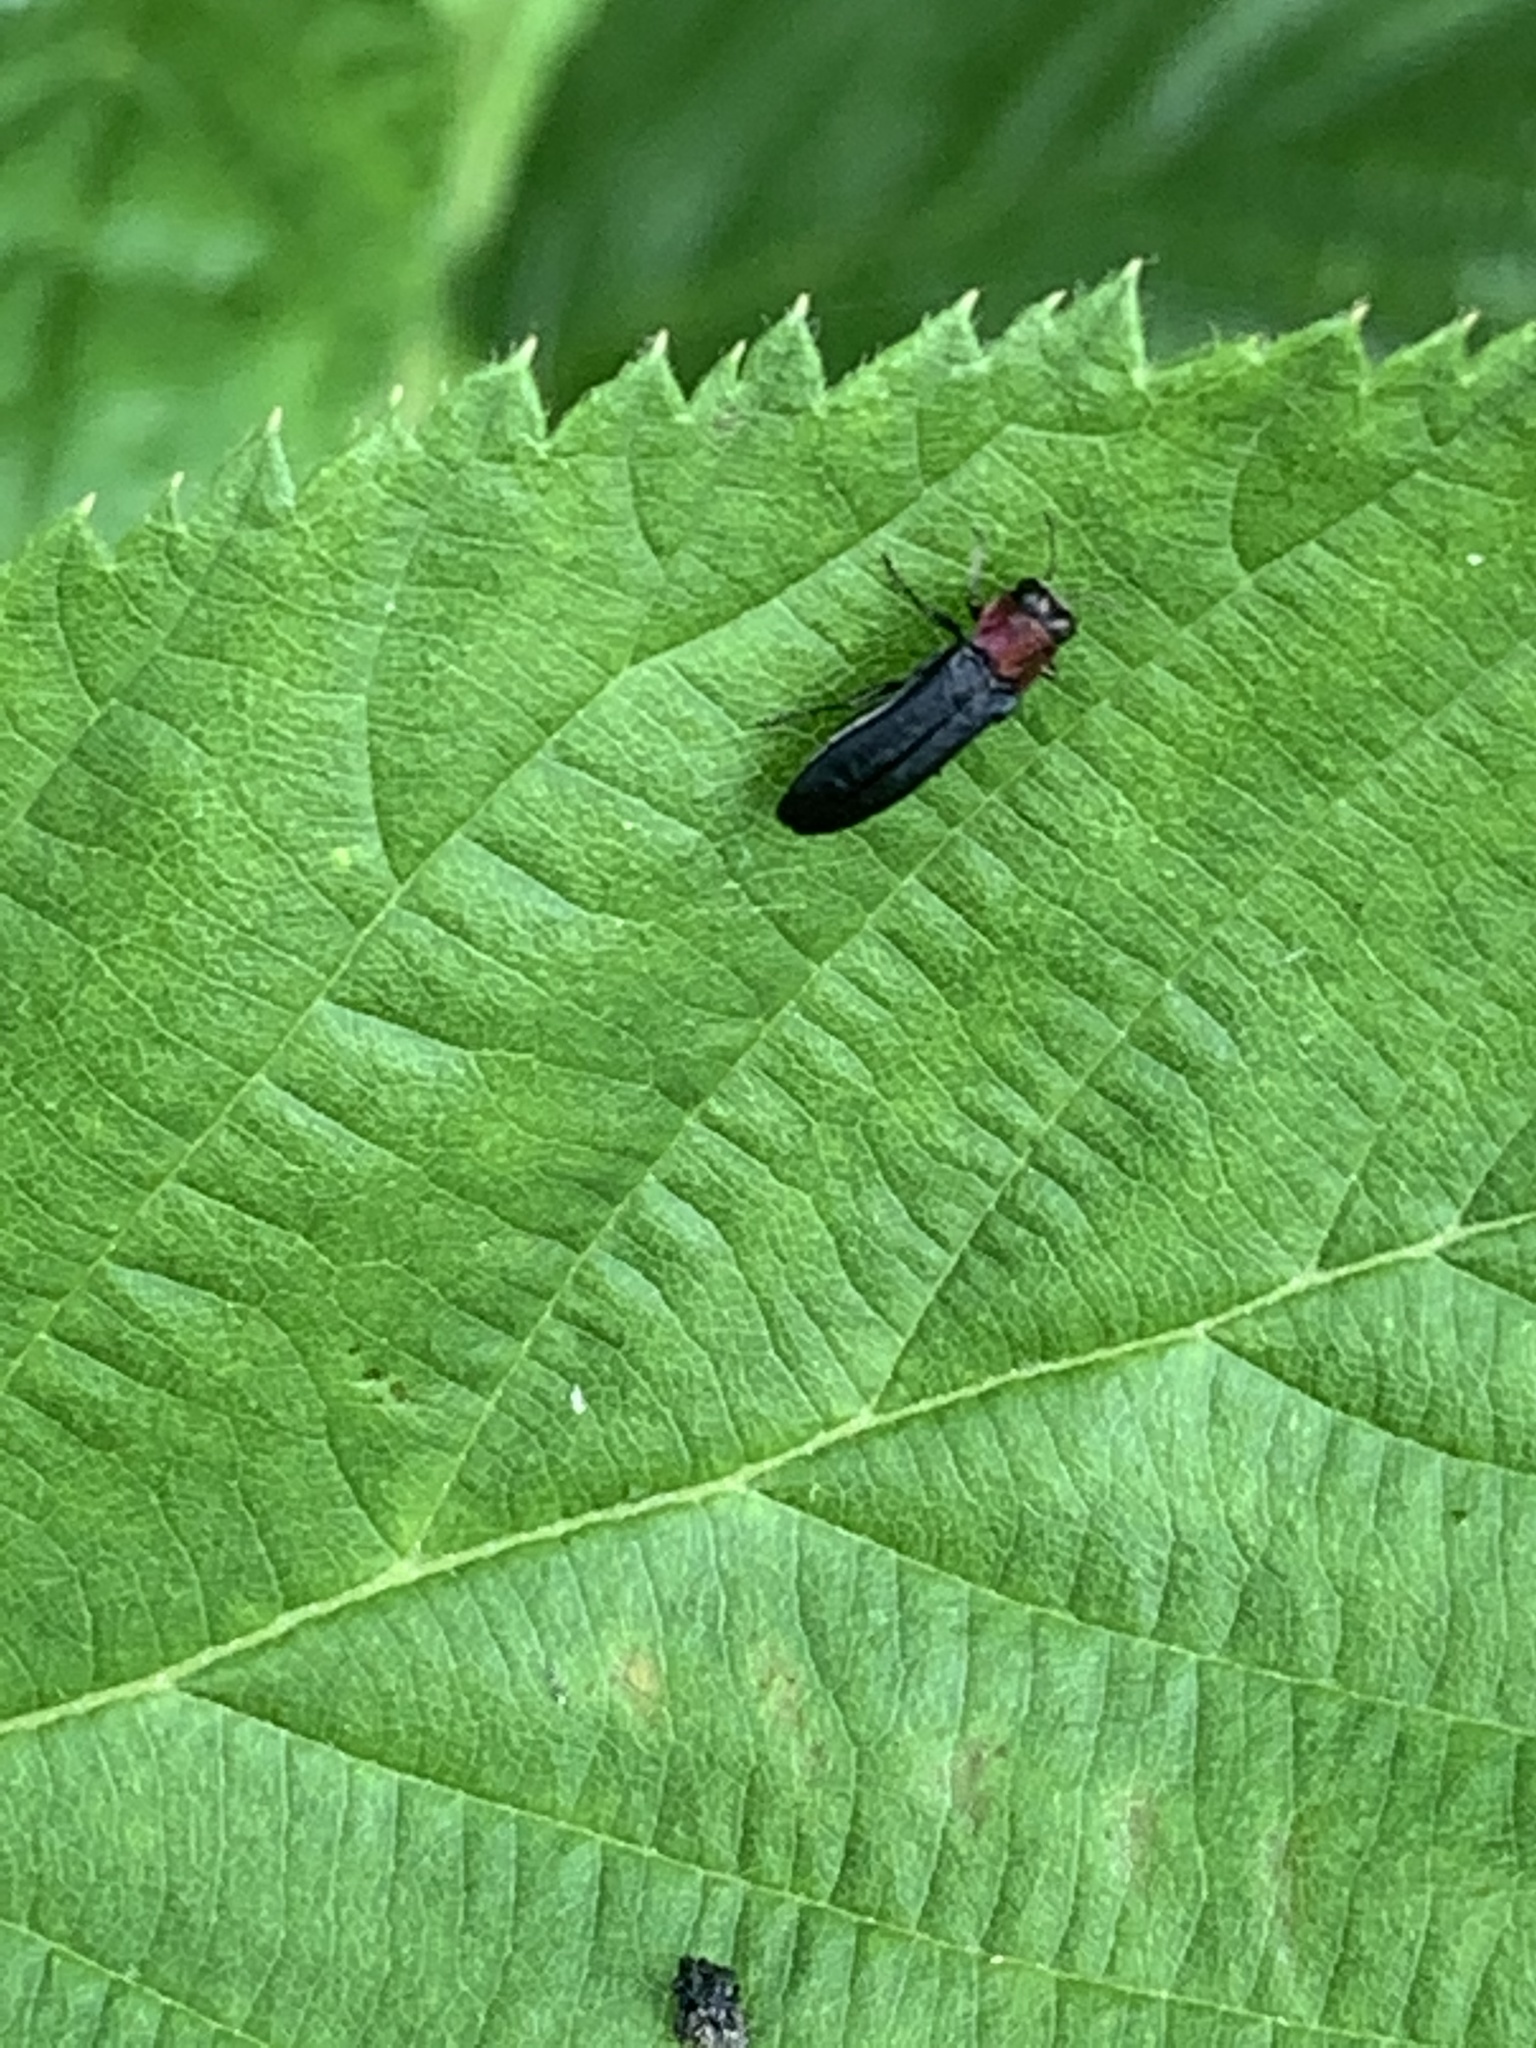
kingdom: Animalia
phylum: Arthropoda
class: Insecta
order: Coleoptera
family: Buprestidae
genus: Agrilus
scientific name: Agrilus ruficollis
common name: Red-necked cane borer beetle
